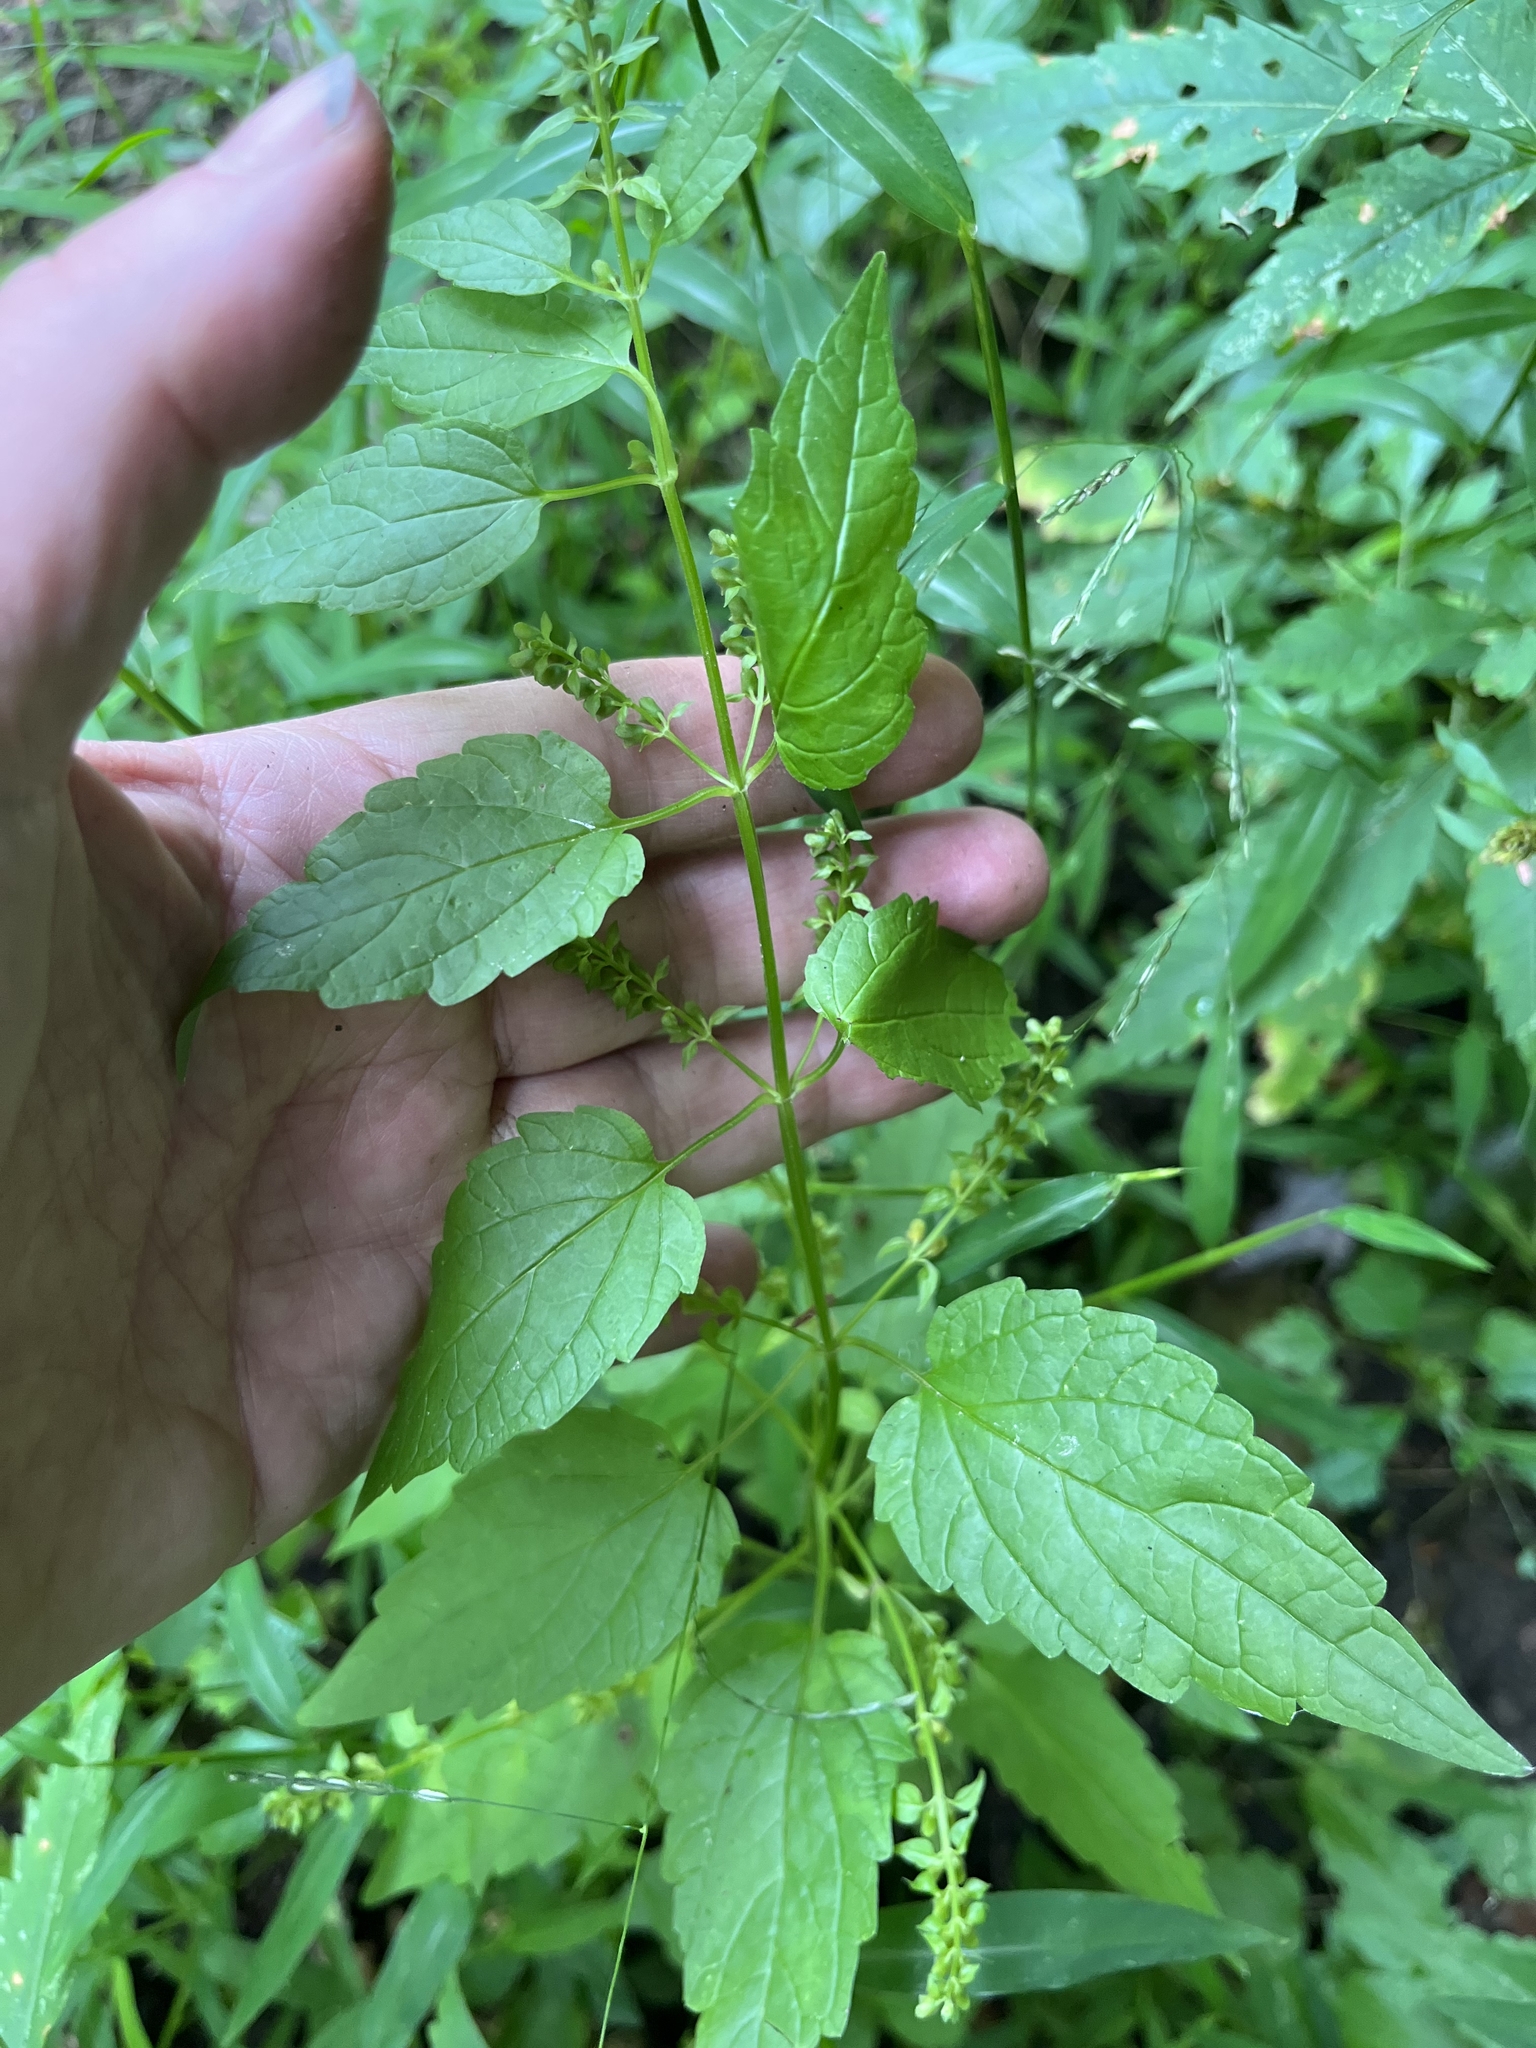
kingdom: Plantae
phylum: Tracheophyta
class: Magnoliopsida
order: Lamiales
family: Lamiaceae
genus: Scutellaria
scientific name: Scutellaria lateriflora
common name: Blue skullcap
